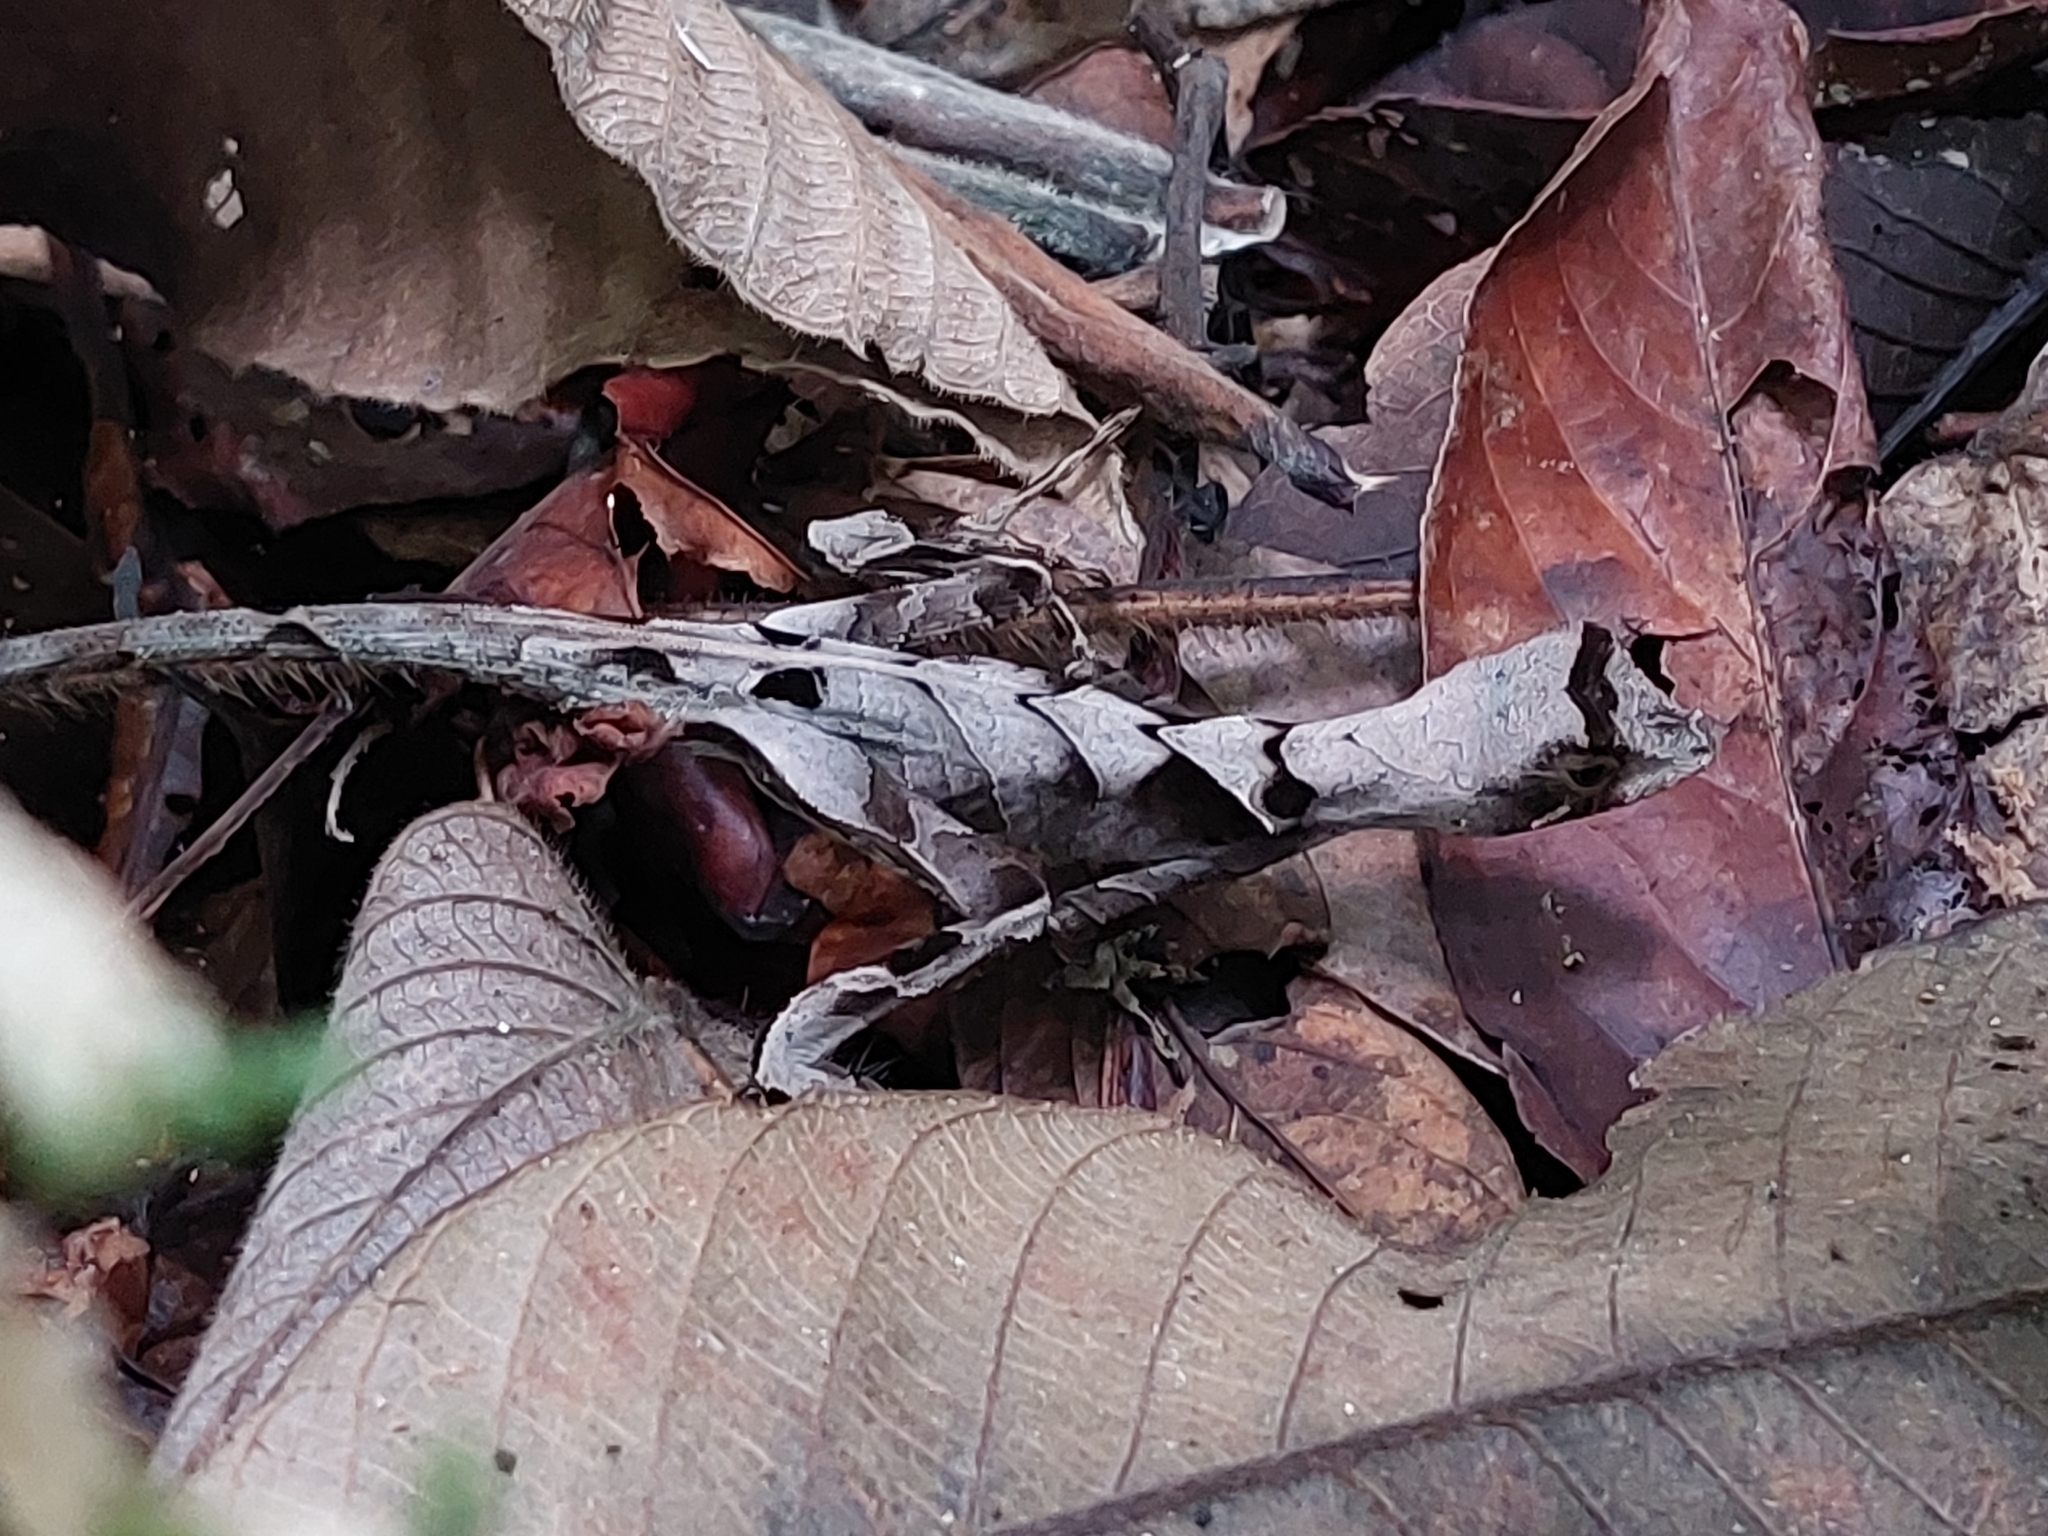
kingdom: Animalia
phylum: Chordata
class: Squamata
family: Dactyloidae
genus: Anolis
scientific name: Anolis scypheus
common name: Yellow-tongued anole
